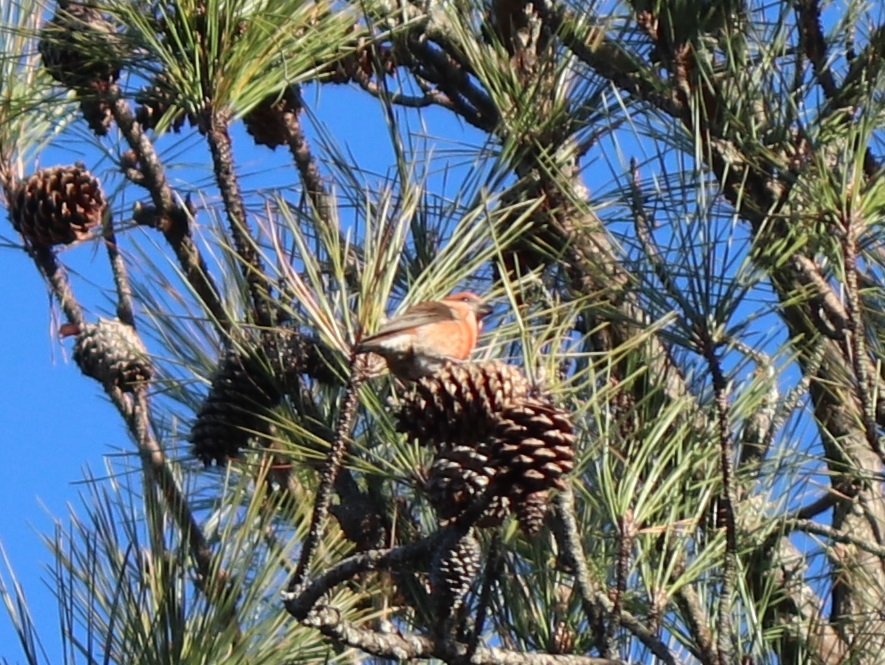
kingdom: Animalia
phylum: Chordata
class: Aves
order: Passeriformes
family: Fringillidae
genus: Loxia
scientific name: Loxia curvirostra
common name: Red crossbill
